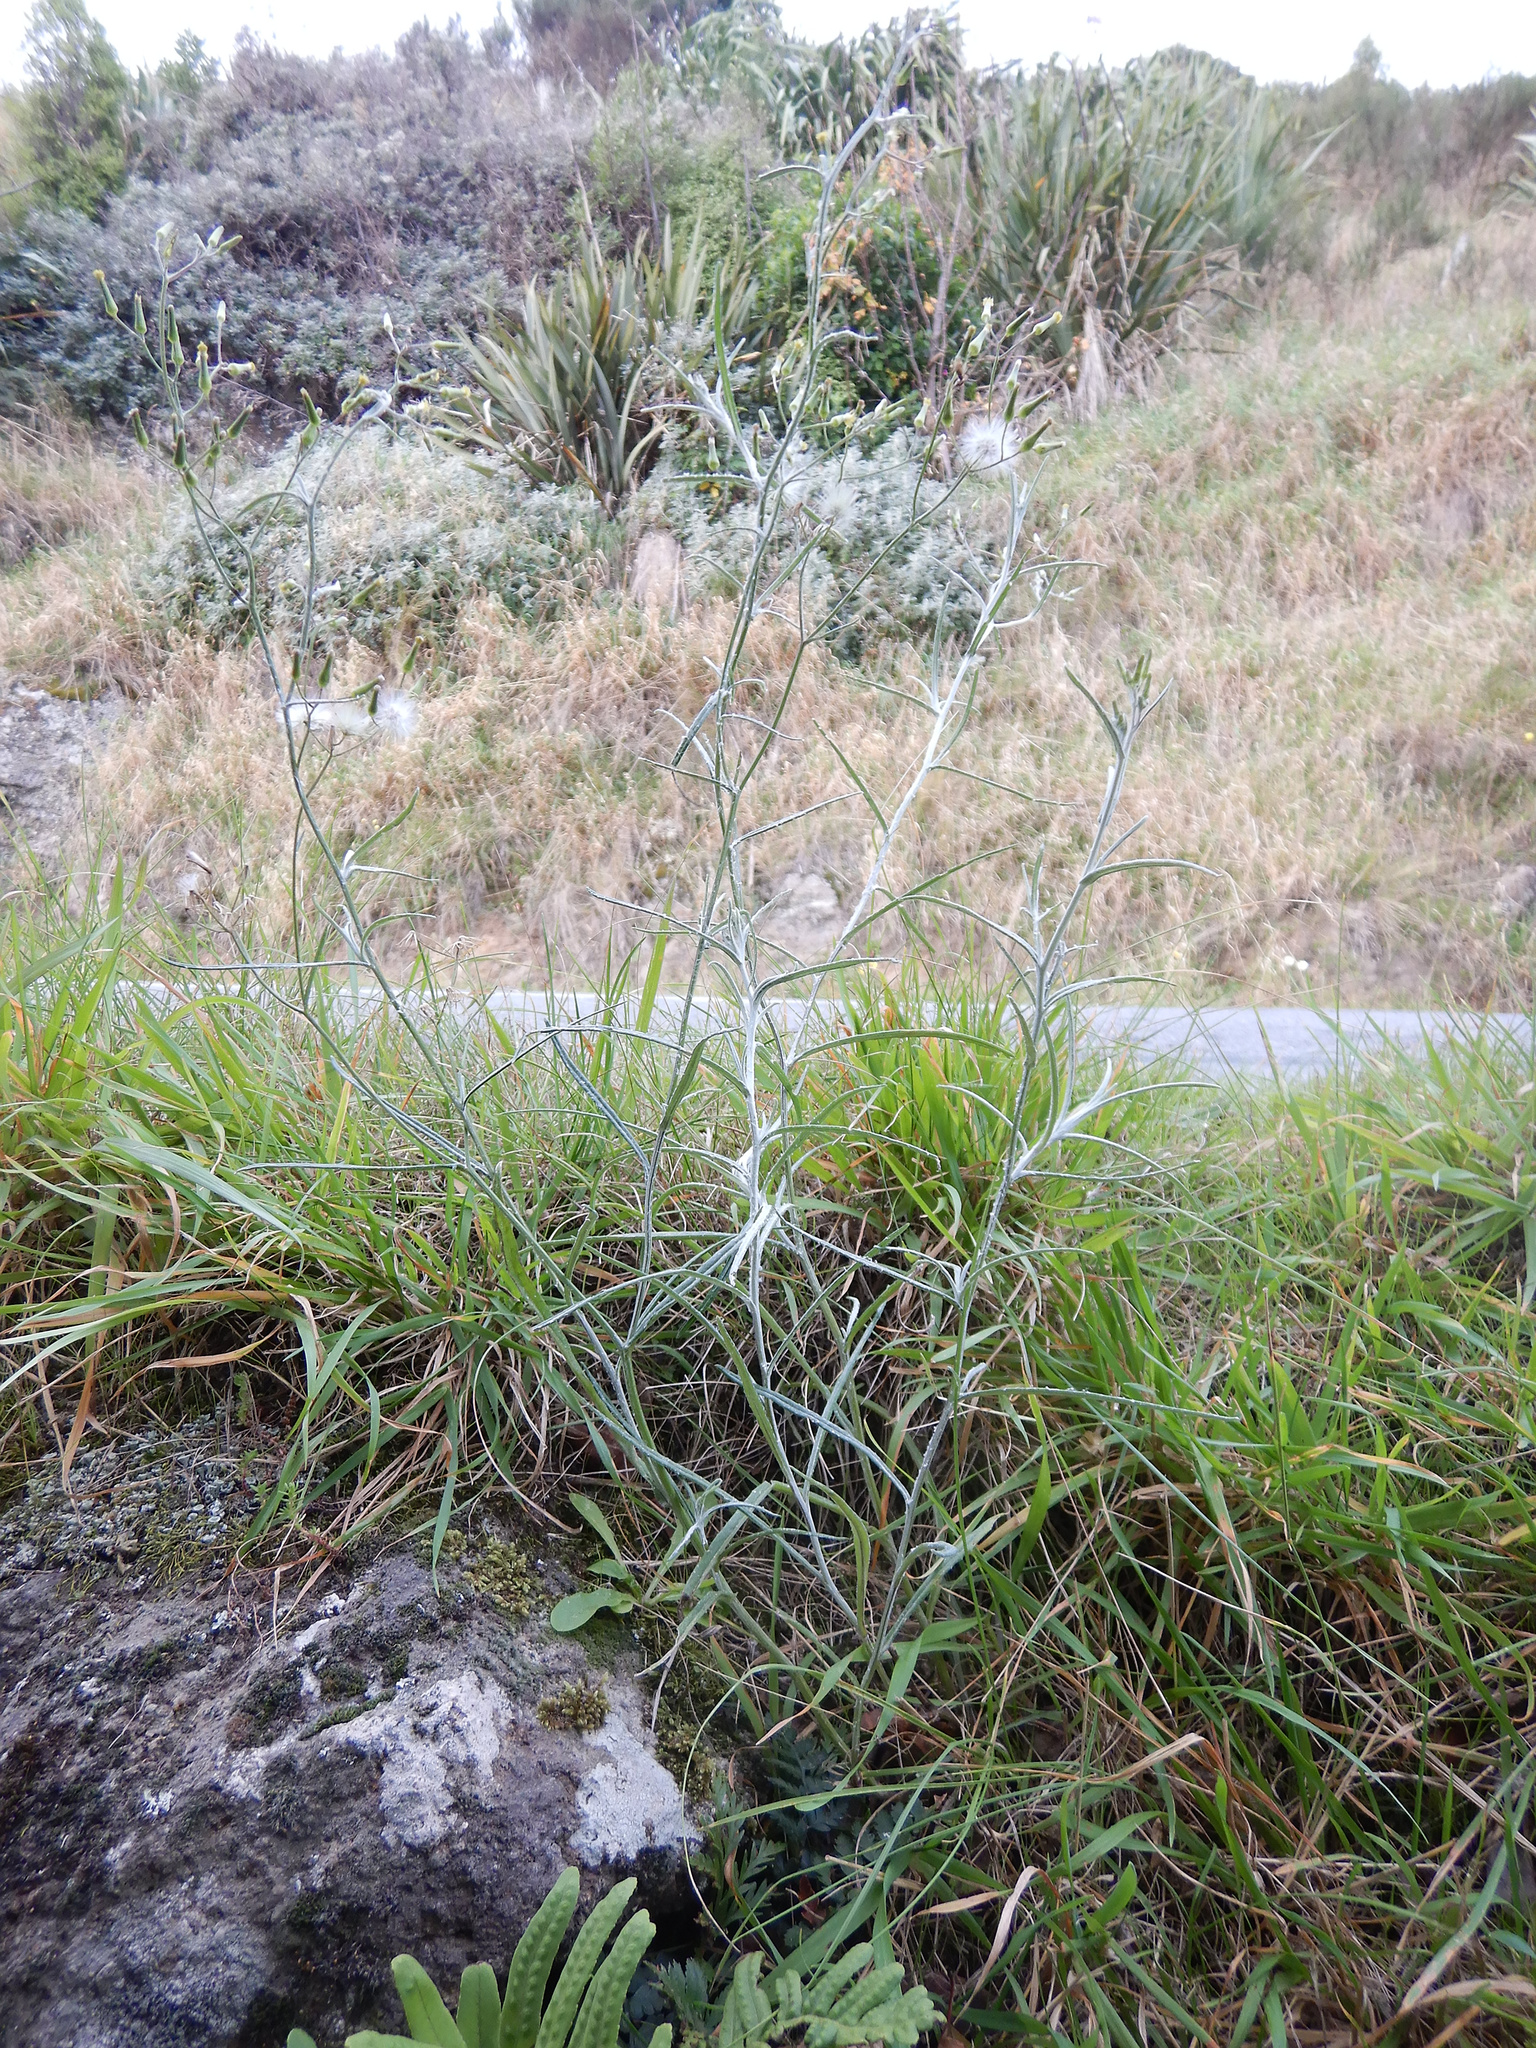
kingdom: Plantae
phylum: Tracheophyta
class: Magnoliopsida
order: Asterales
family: Asteraceae
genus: Senecio
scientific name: Senecio quadridentatus
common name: Cotton fireweed
